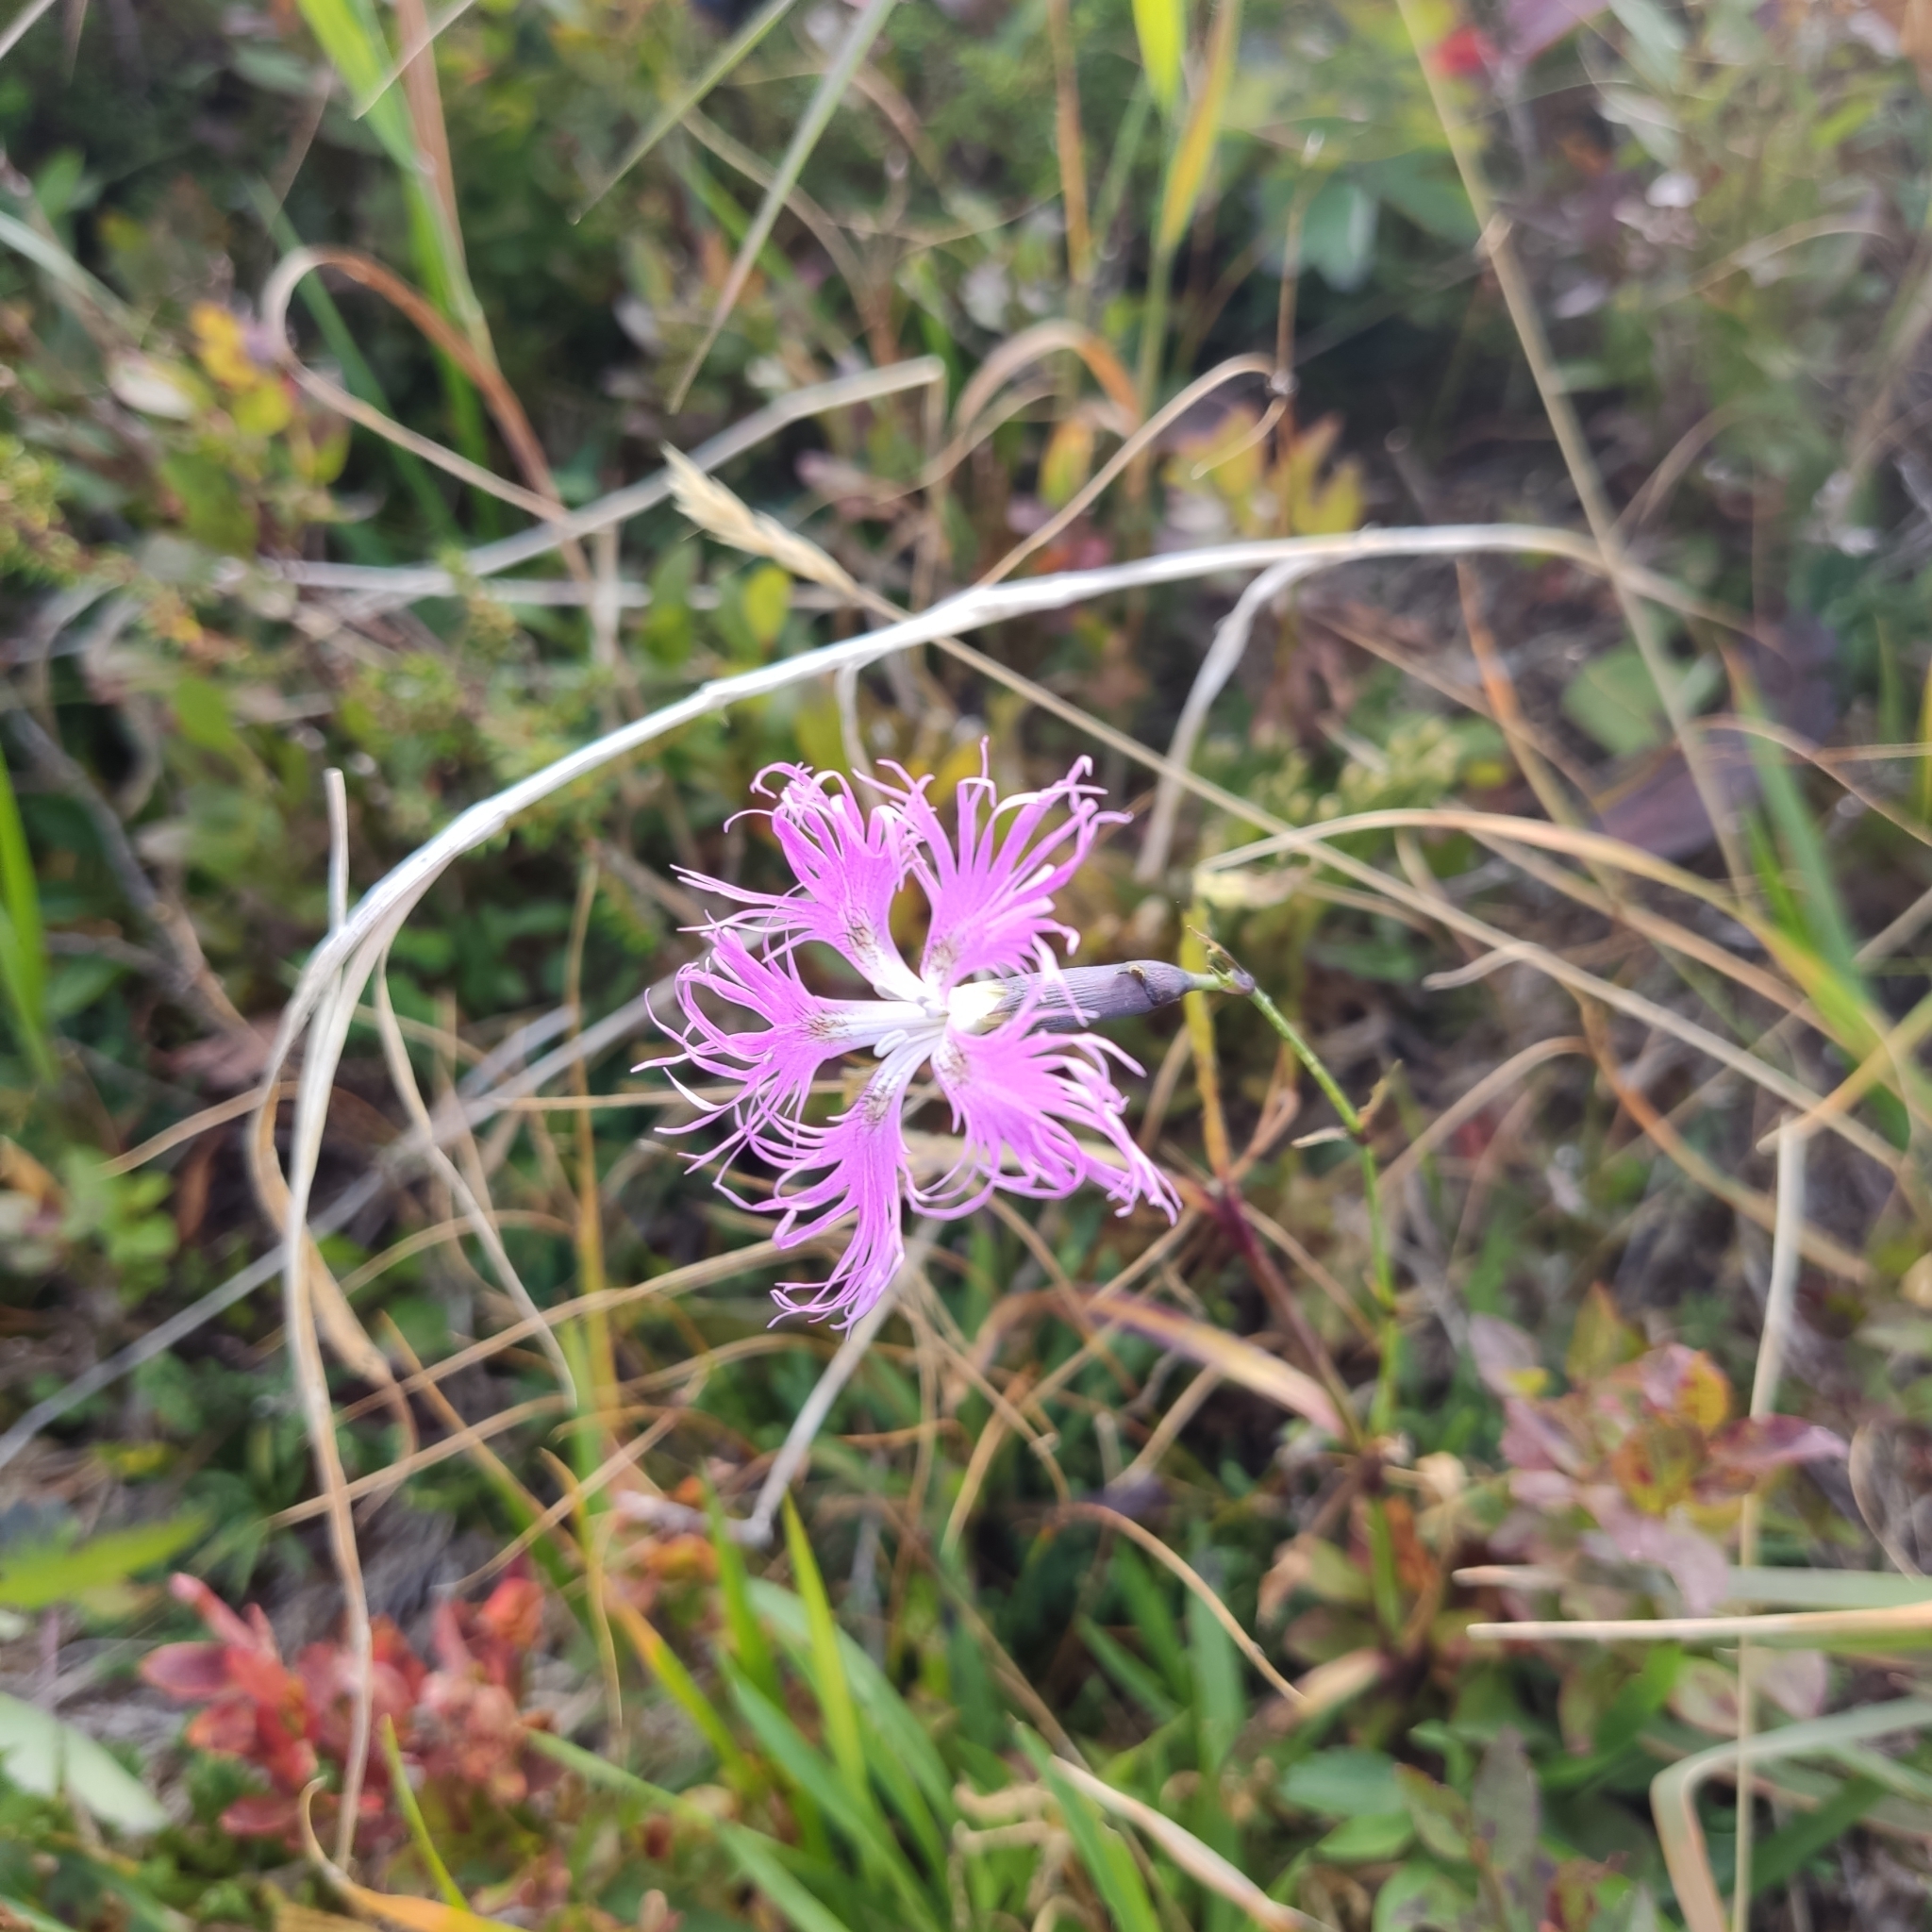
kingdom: Plantae
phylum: Tracheophyta
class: Magnoliopsida
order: Caryophyllales
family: Caryophyllaceae
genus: Dianthus
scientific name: Dianthus superbus
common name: Fringed pink
